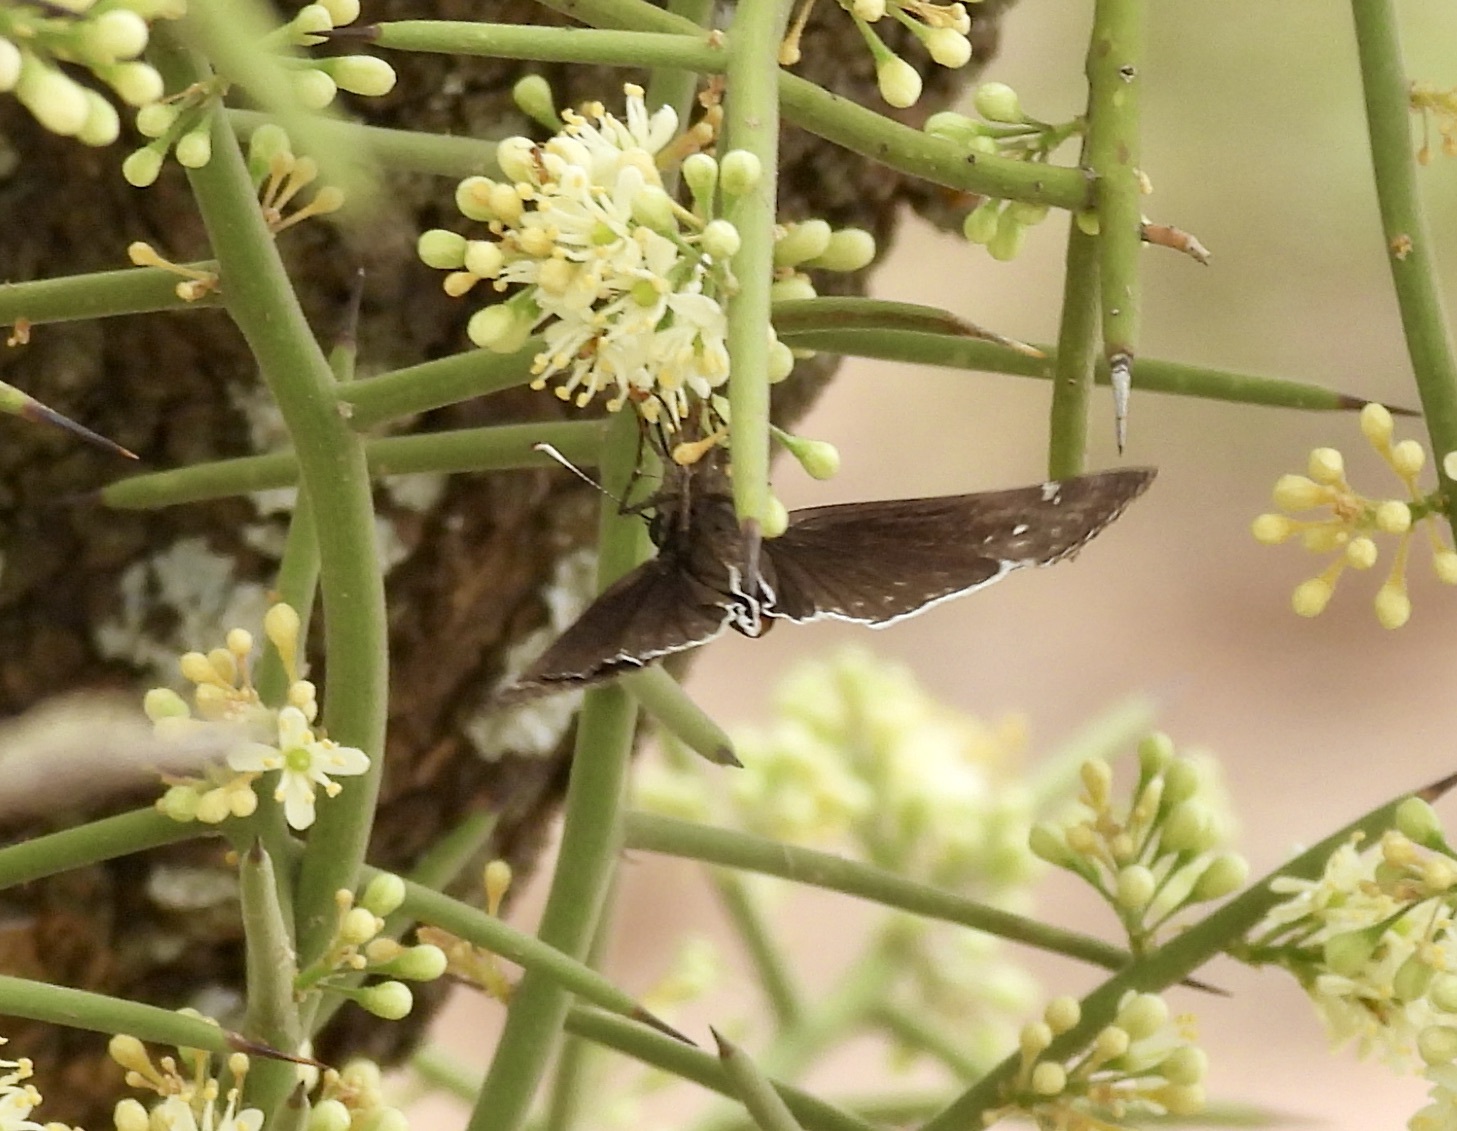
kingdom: Animalia
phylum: Arthropoda
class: Insecta
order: Lepidoptera
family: Hesperiidae
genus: Erynnis
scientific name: Erynnis funeralis
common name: Funereal duskywing
